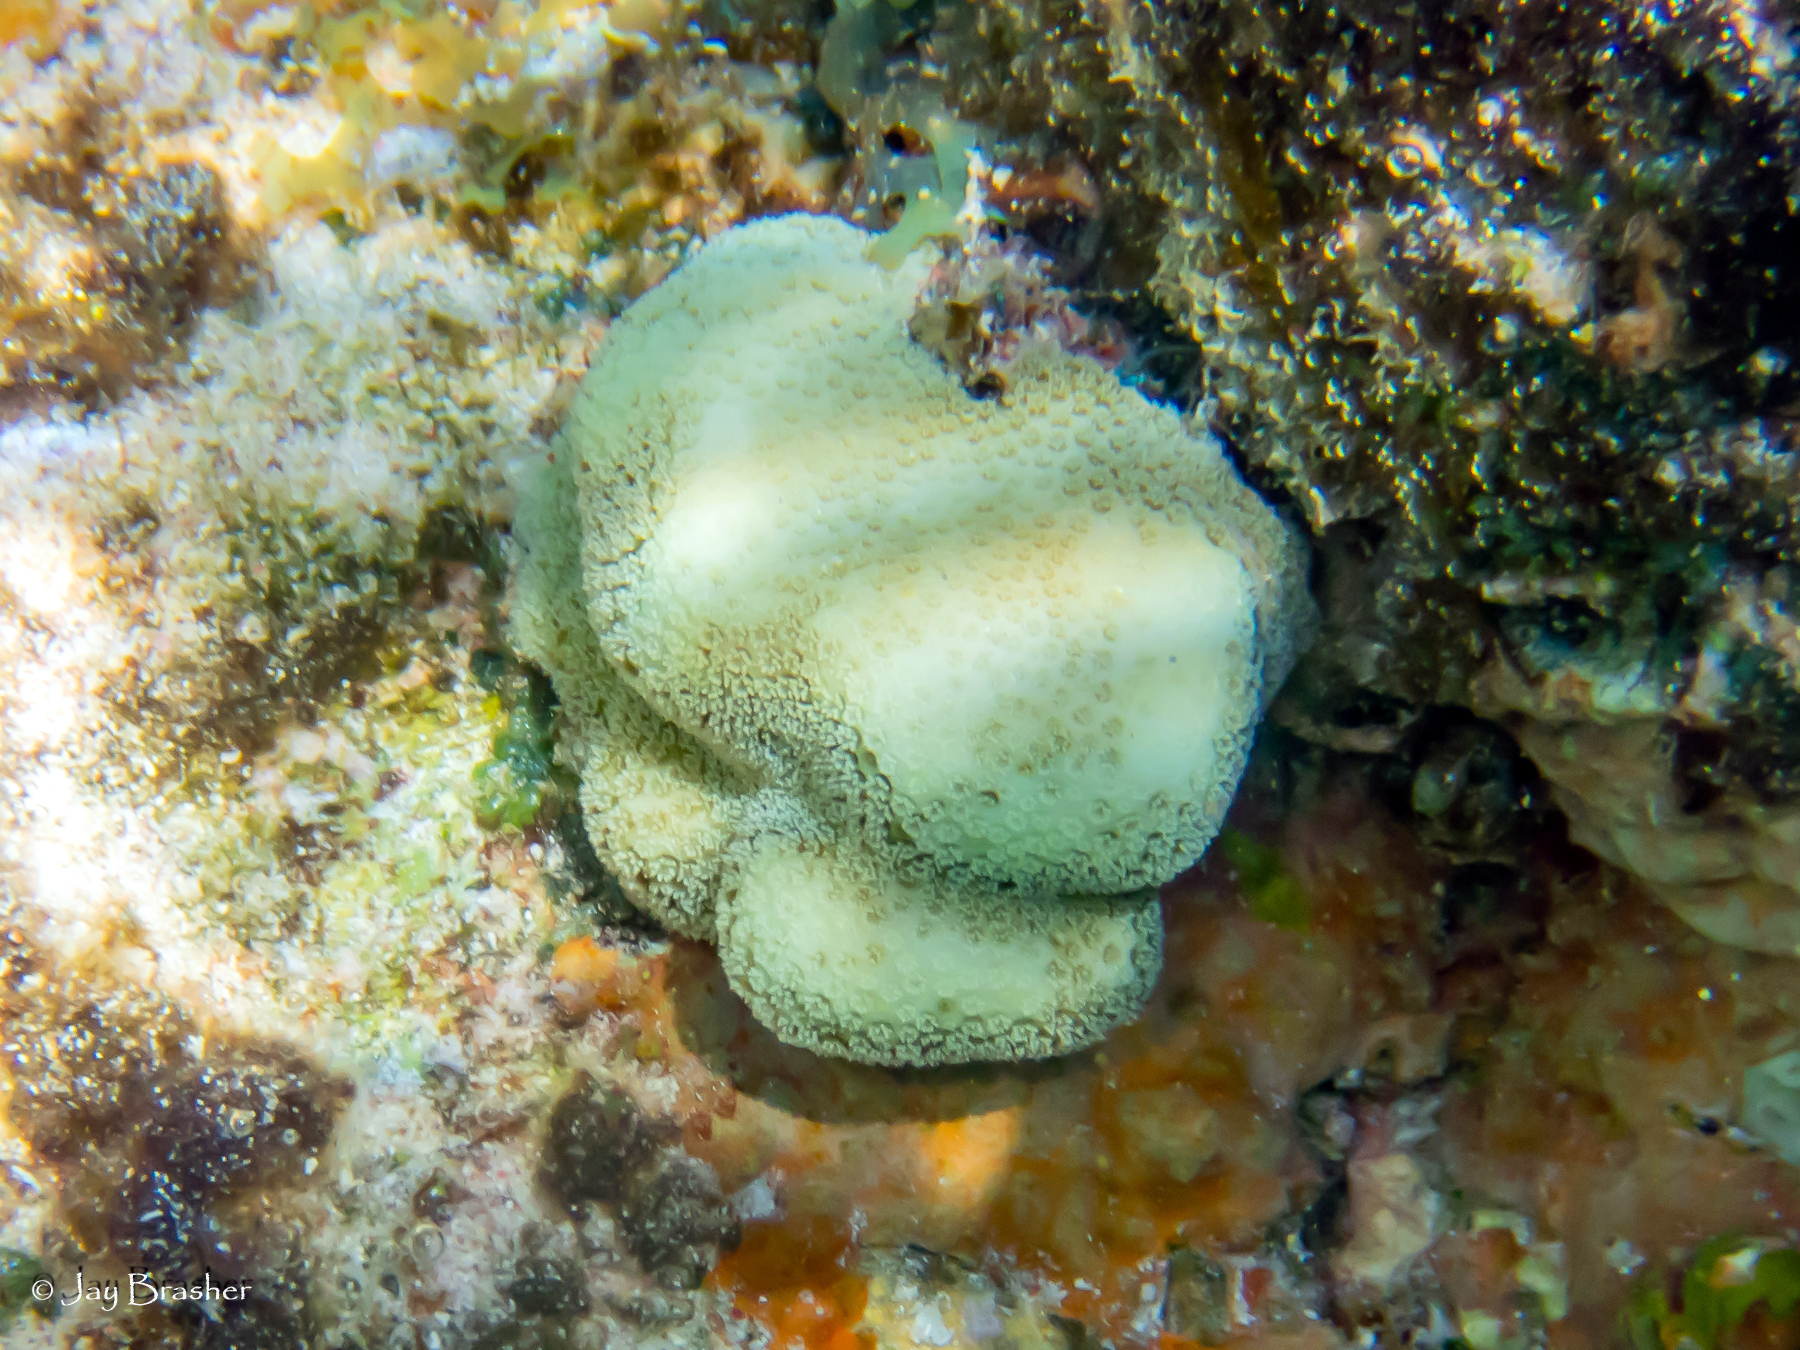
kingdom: Animalia
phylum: Cnidaria
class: Anthozoa
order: Scleractinia
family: Poritidae
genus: Porites
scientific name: Porites astreoides
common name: Mustard hill coral
